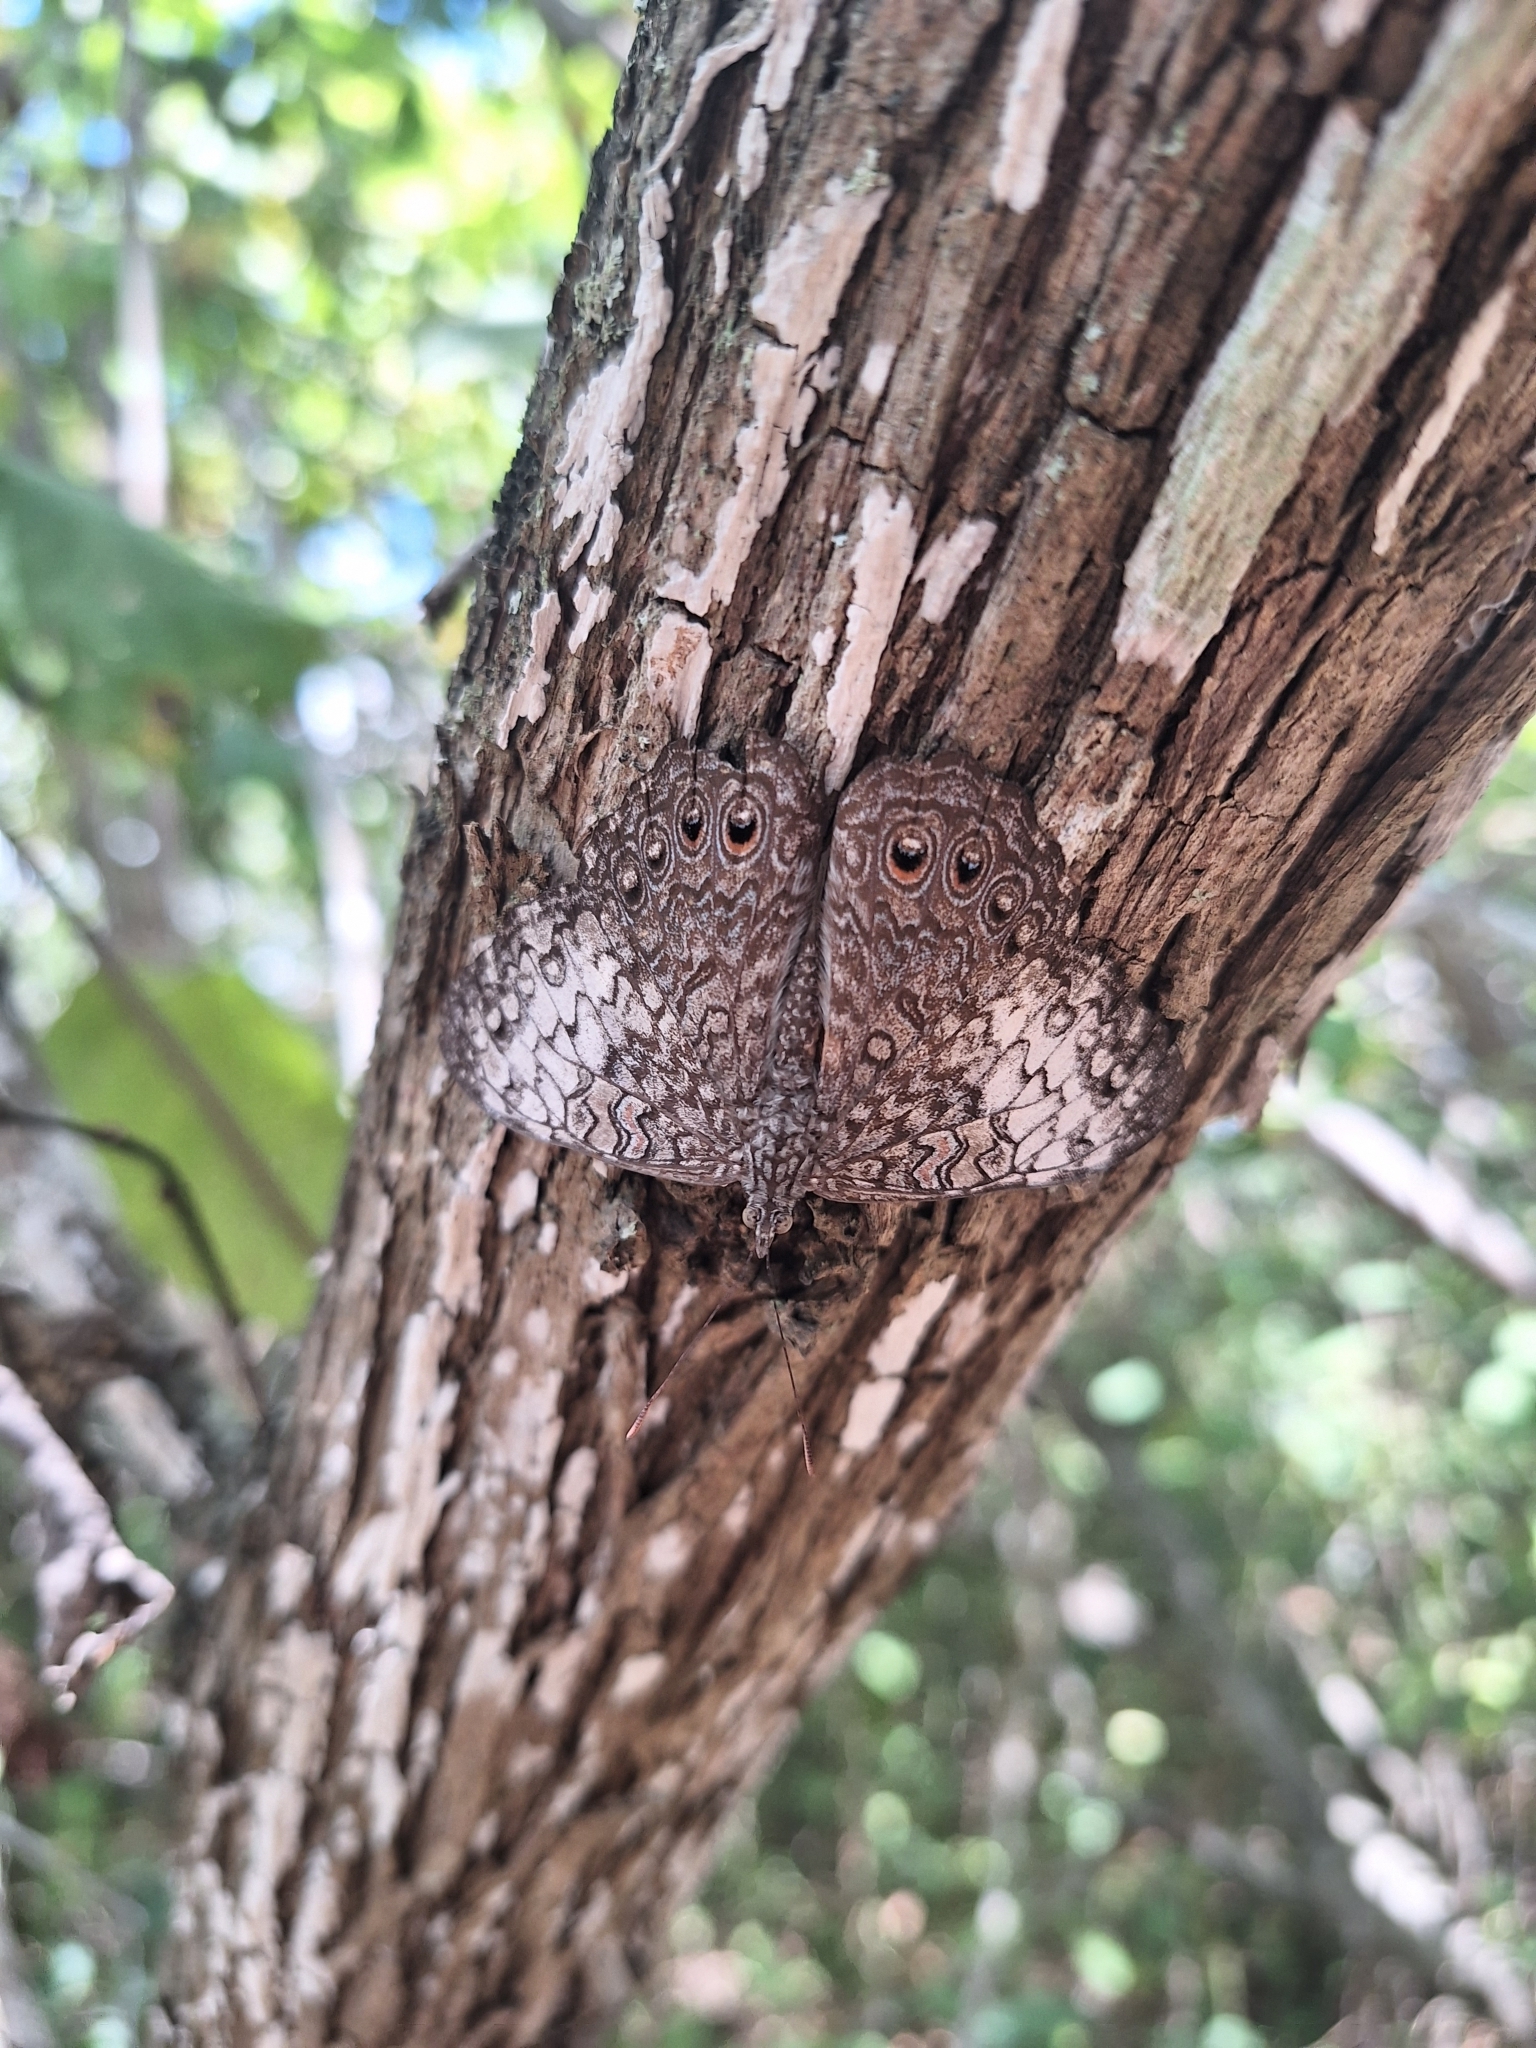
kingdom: Animalia
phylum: Arthropoda
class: Insecta
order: Lepidoptera
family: Nymphalidae
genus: Hamadryas
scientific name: Hamadryas februa
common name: Gray cracker
